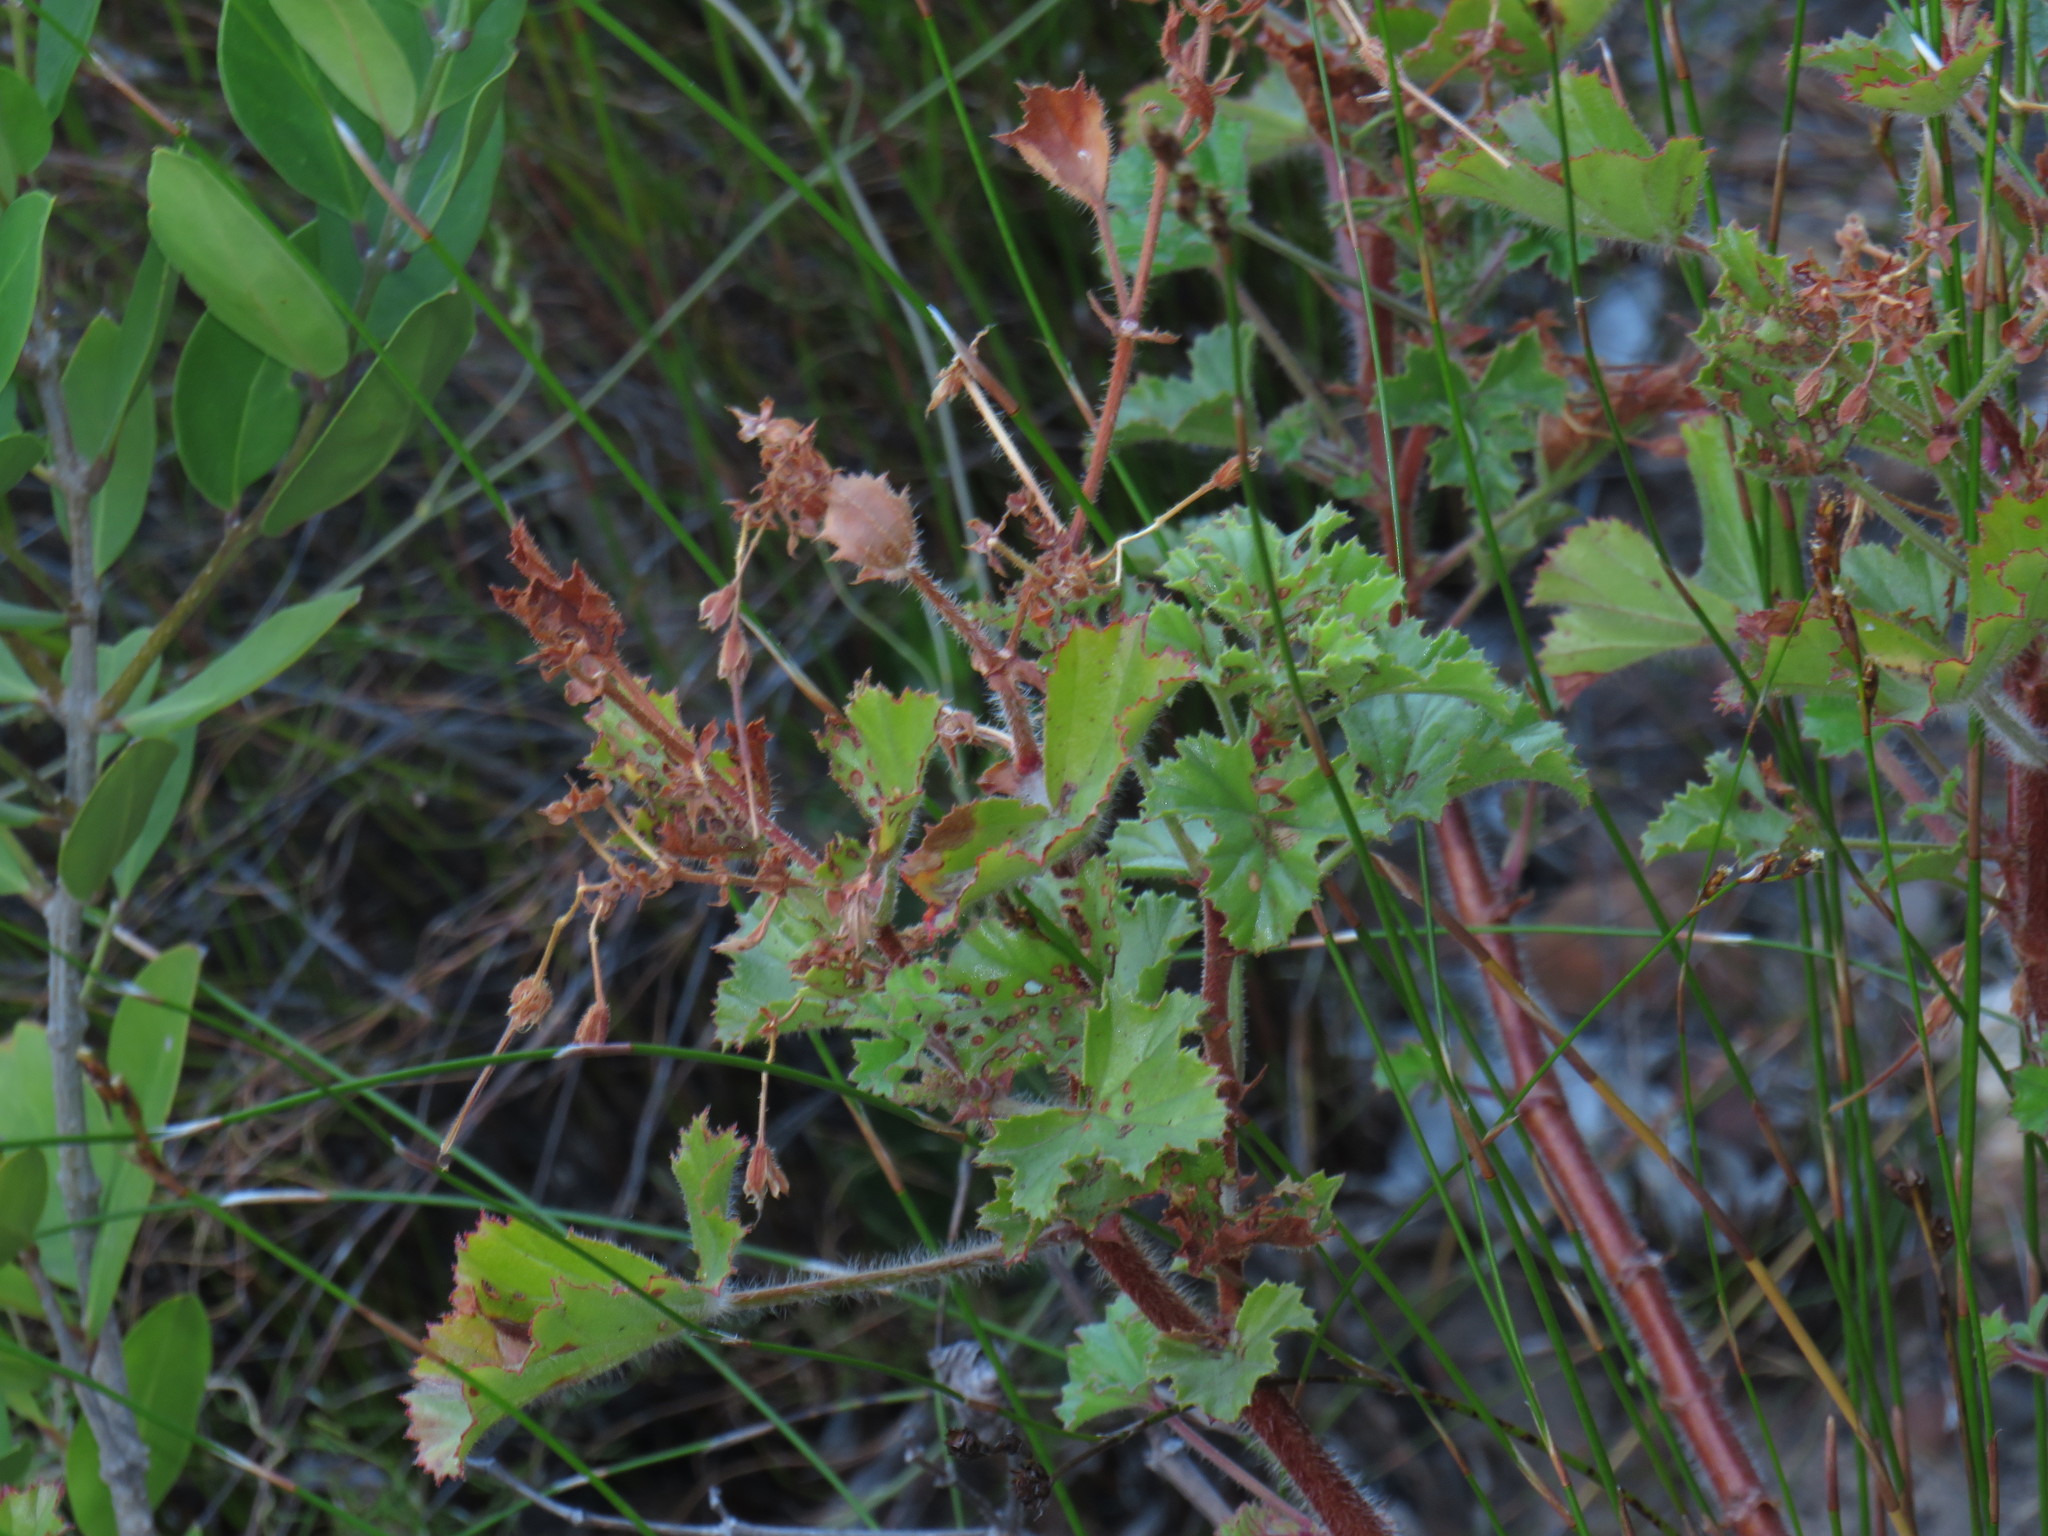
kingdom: Plantae
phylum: Tracheophyta
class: Magnoliopsida
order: Geraniales
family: Geraniaceae
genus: Pelargonium
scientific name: Pelargonium sublignosum
